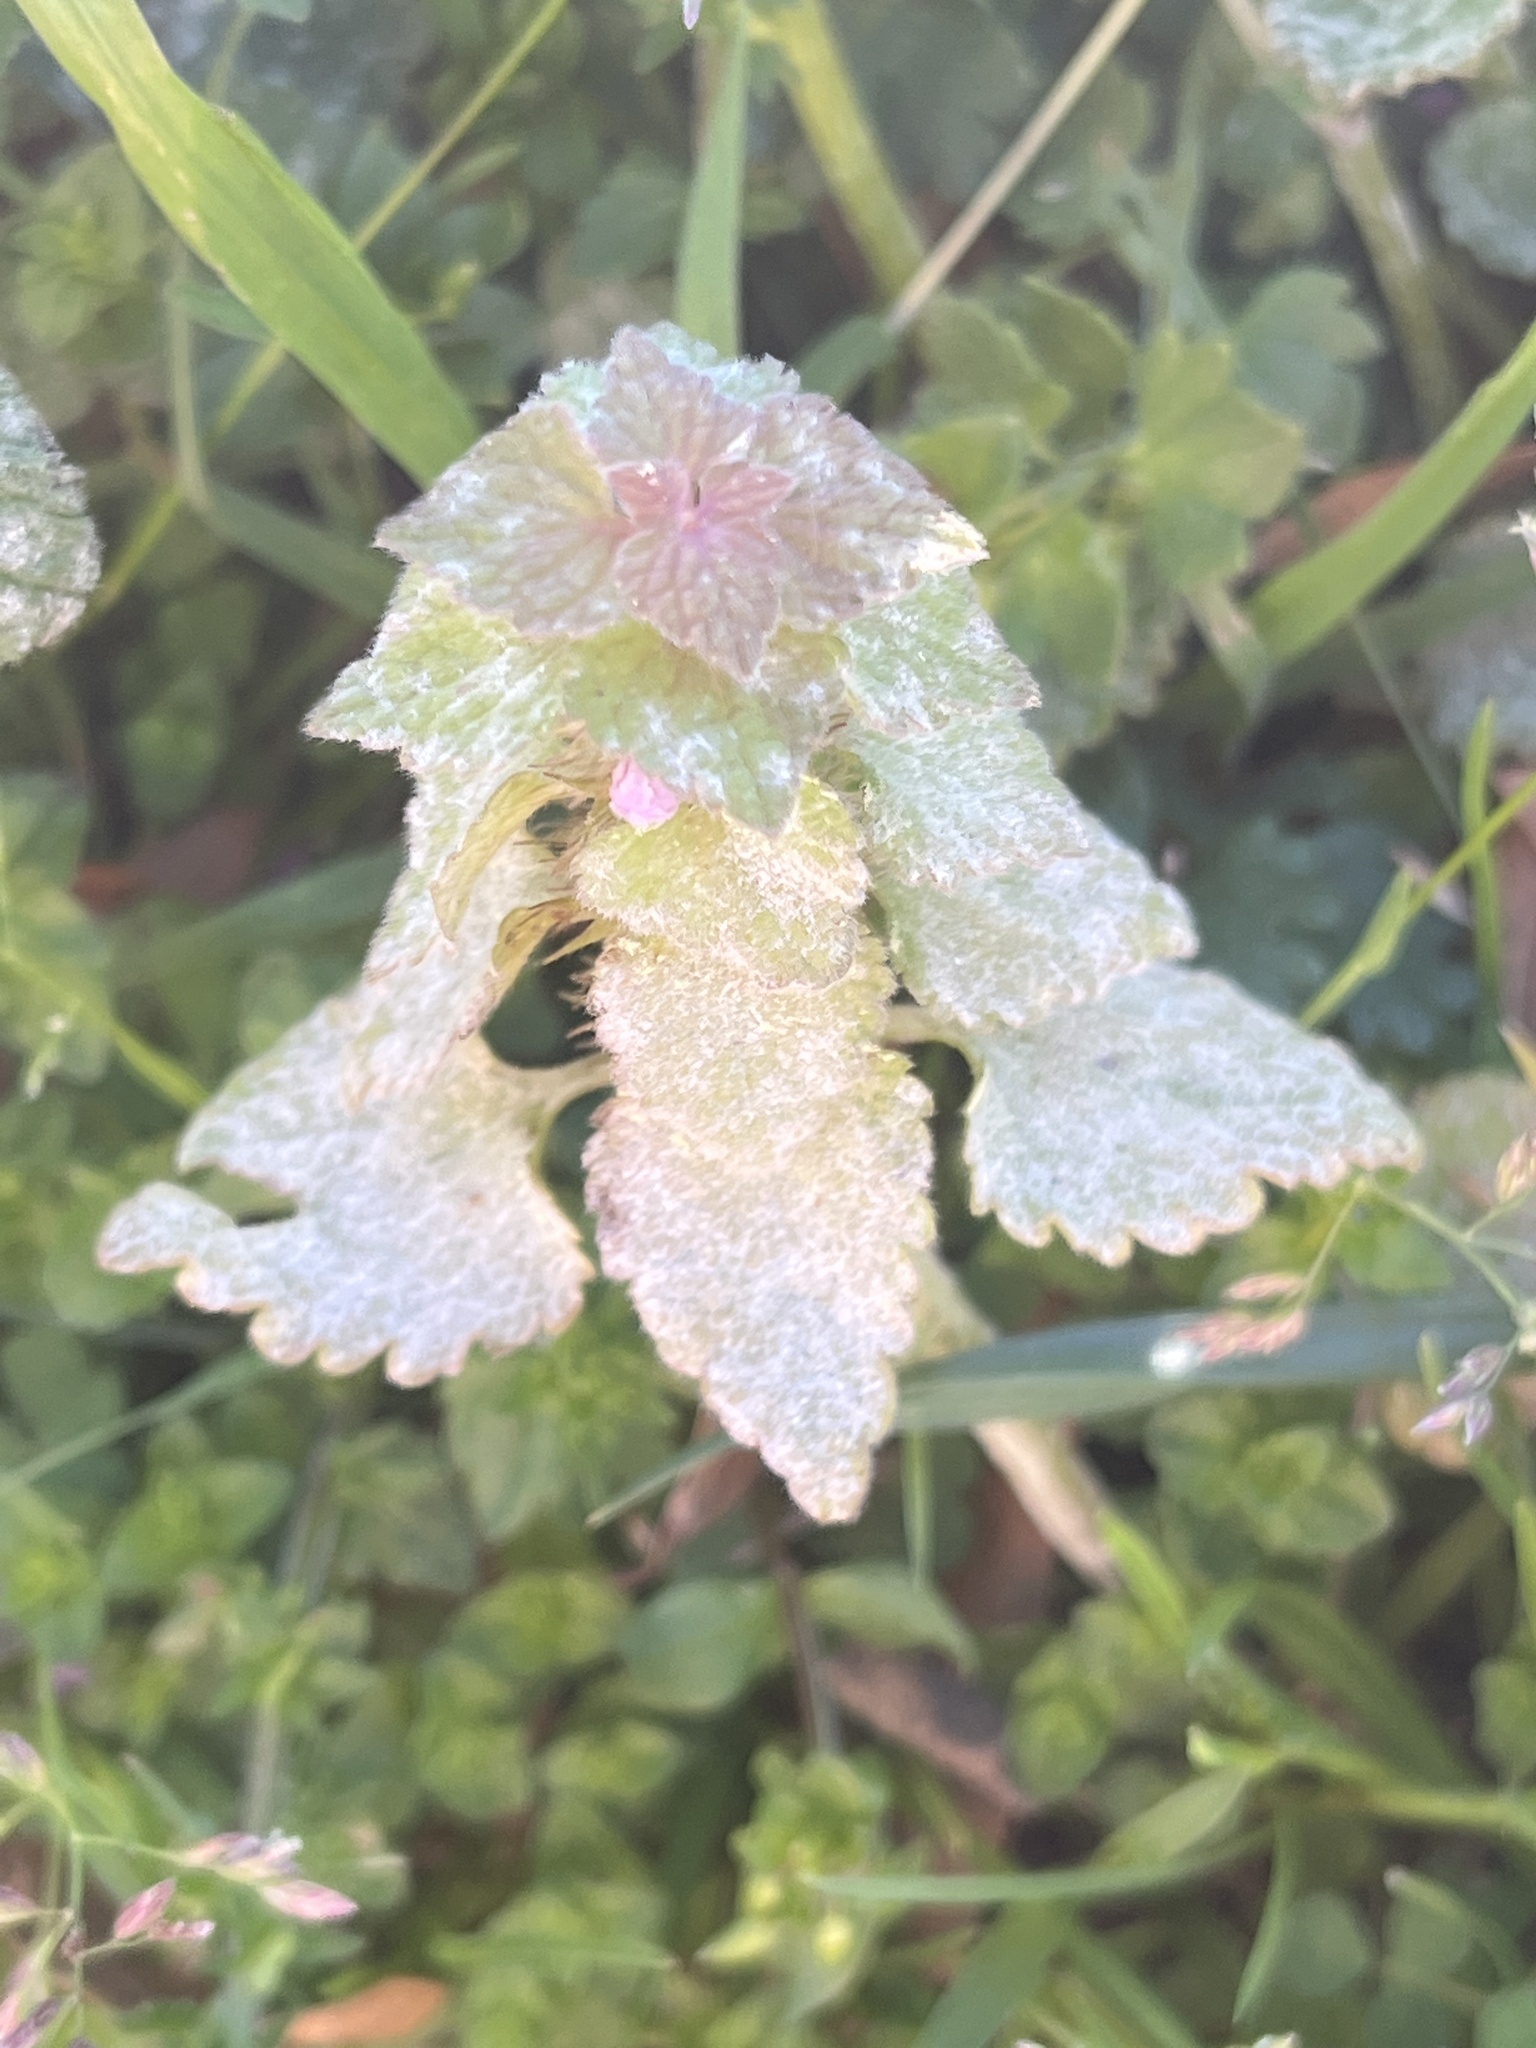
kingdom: Fungi
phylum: Ascomycota
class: Leotiomycetes
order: Helotiales
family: Erysiphaceae
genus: Neoerysiphe
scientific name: Neoerysiphe galeopsidis
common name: Mint mildew
